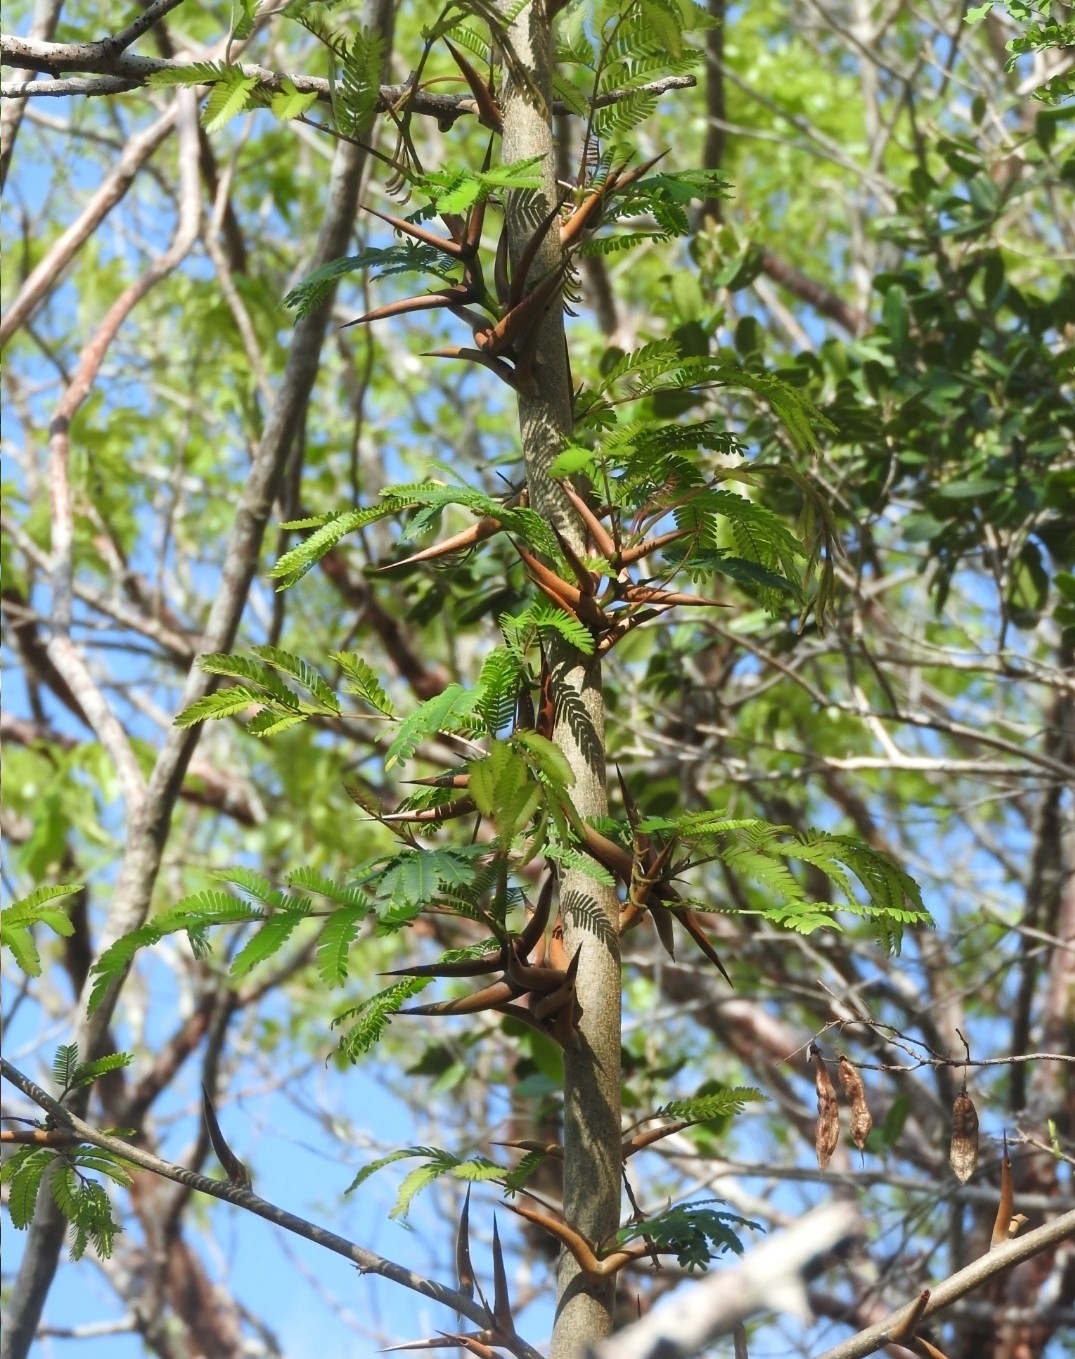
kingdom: Plantae
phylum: Tracheophyta
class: Magnoliopsida
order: Fabales
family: Fabaceae
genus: Vachellia
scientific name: Vachellia cornigera
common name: Bullhorn wattle
